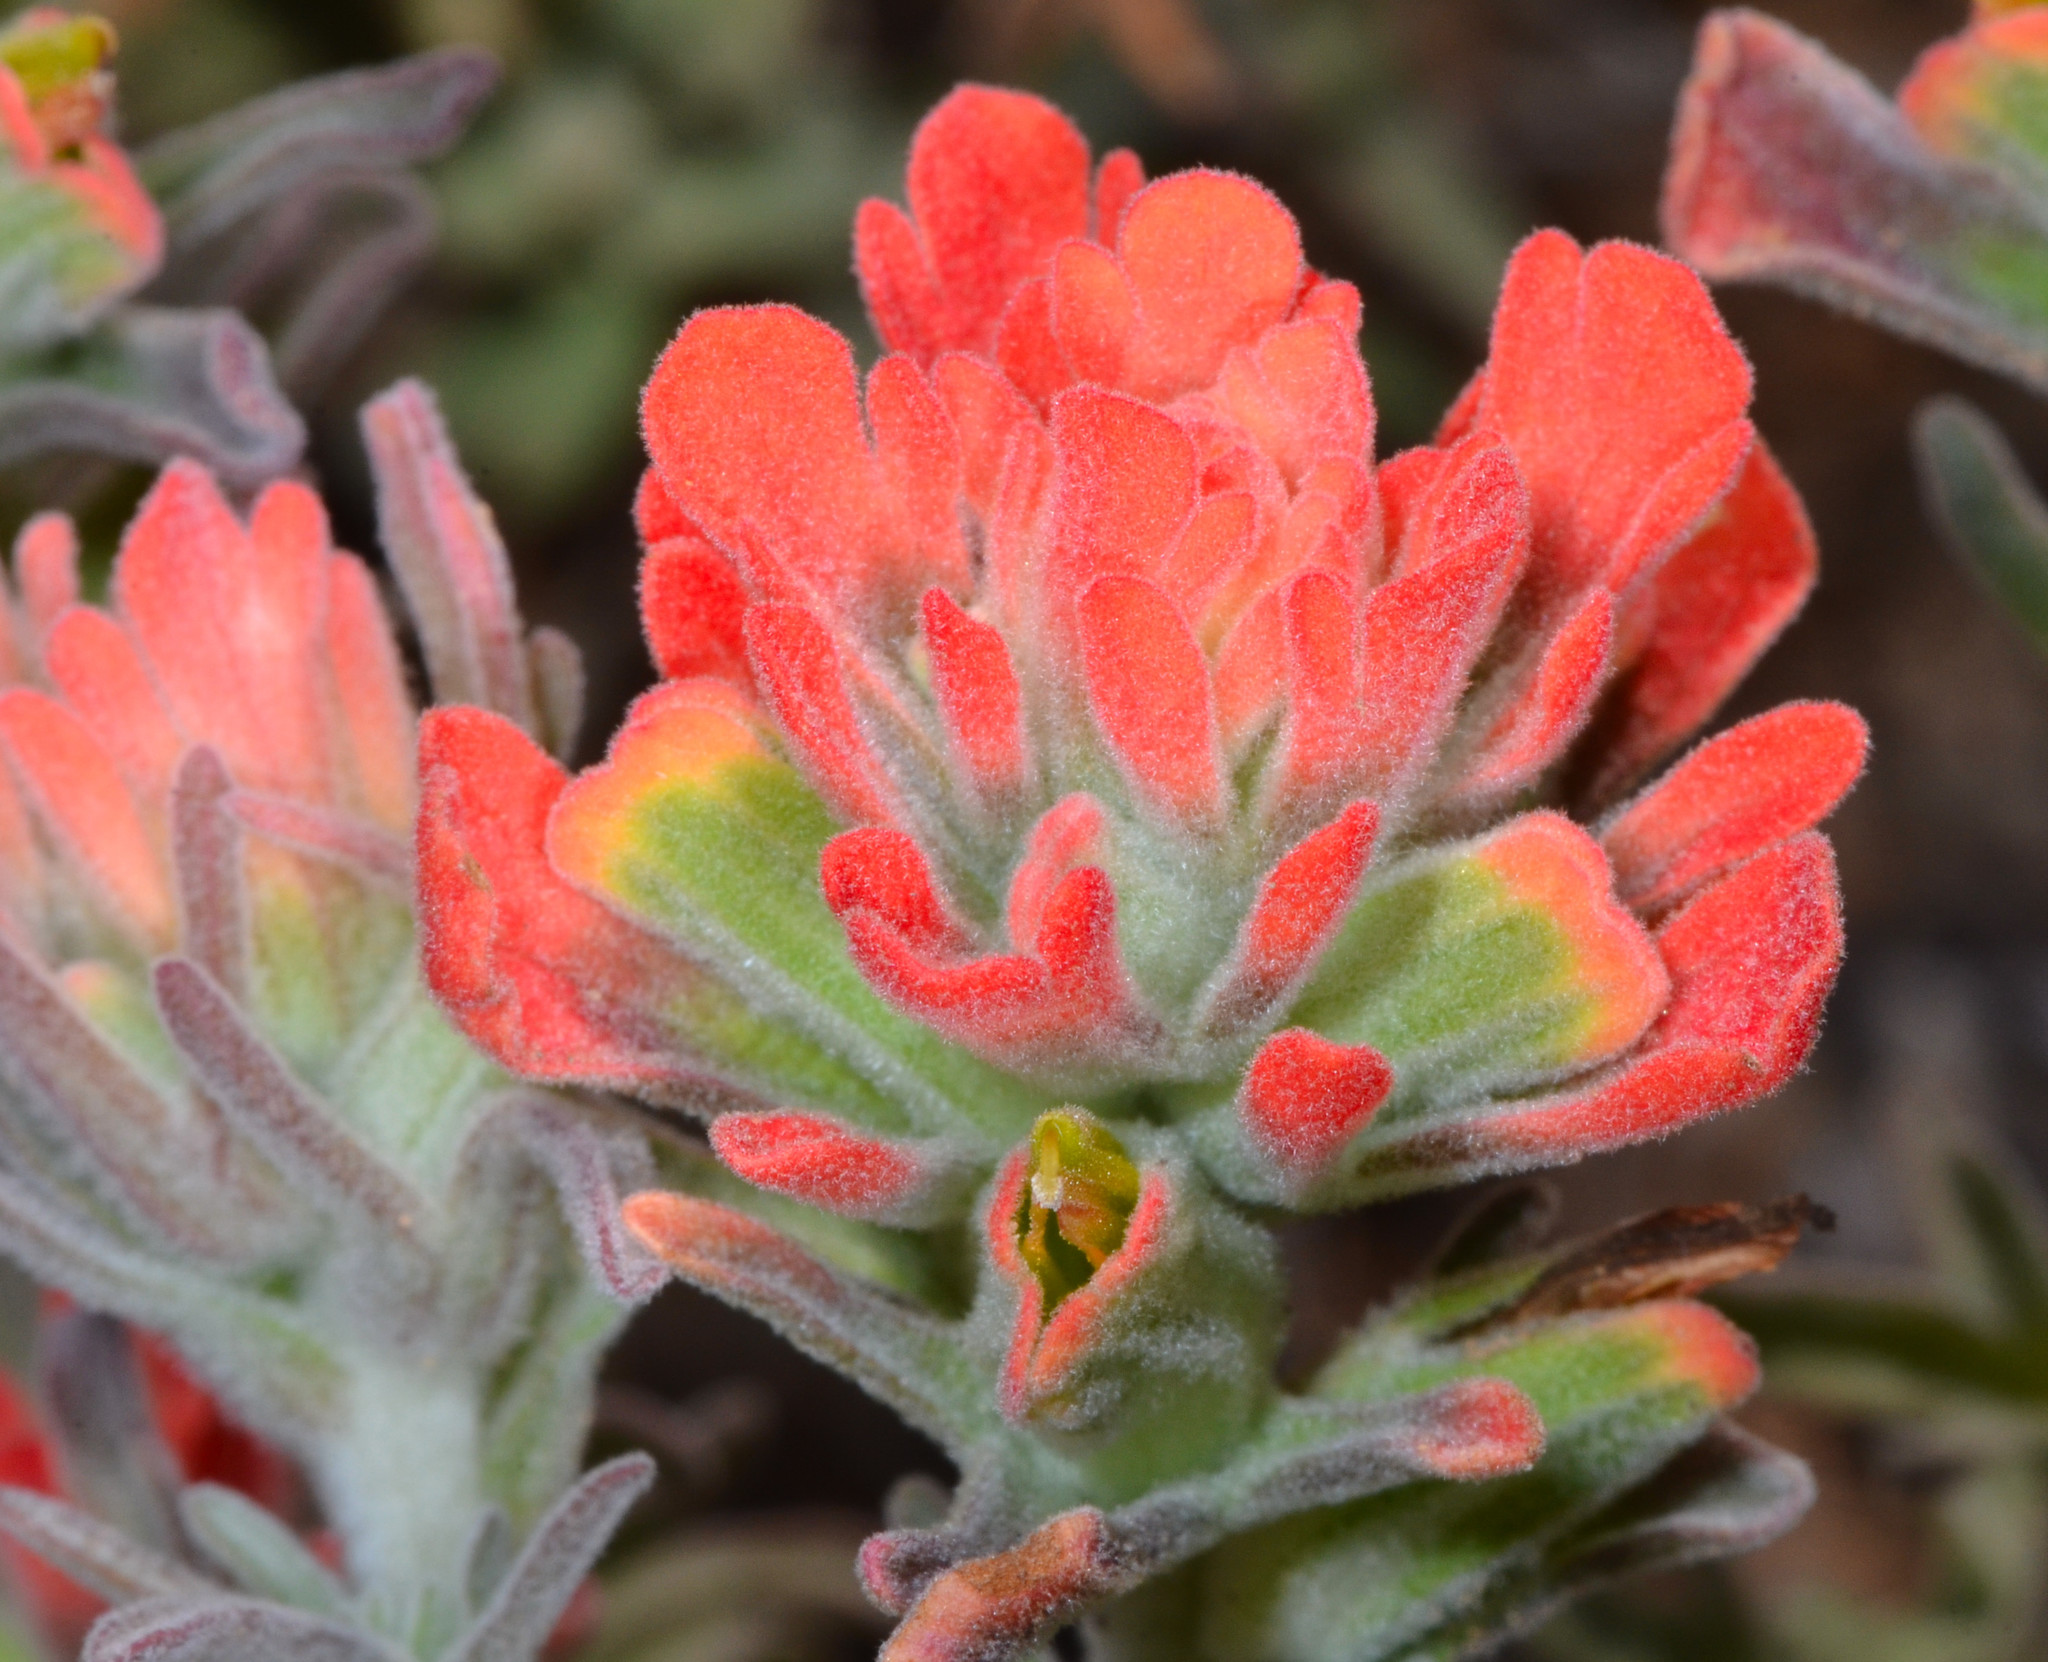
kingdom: Plantae
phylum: Tracheophyta
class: Magnoliopsida
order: Lamiales
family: Orobanchaceae
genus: Castilleja
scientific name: Castilleja foliolosa
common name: Woolly indian paintbrush
